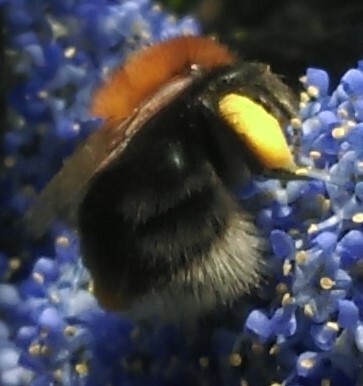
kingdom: Animalia
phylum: Arthropoda
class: Insecta
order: Hymenoptera
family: Apidae
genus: Bombus
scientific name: Bombus hypnorum
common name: New garden bumblebee
